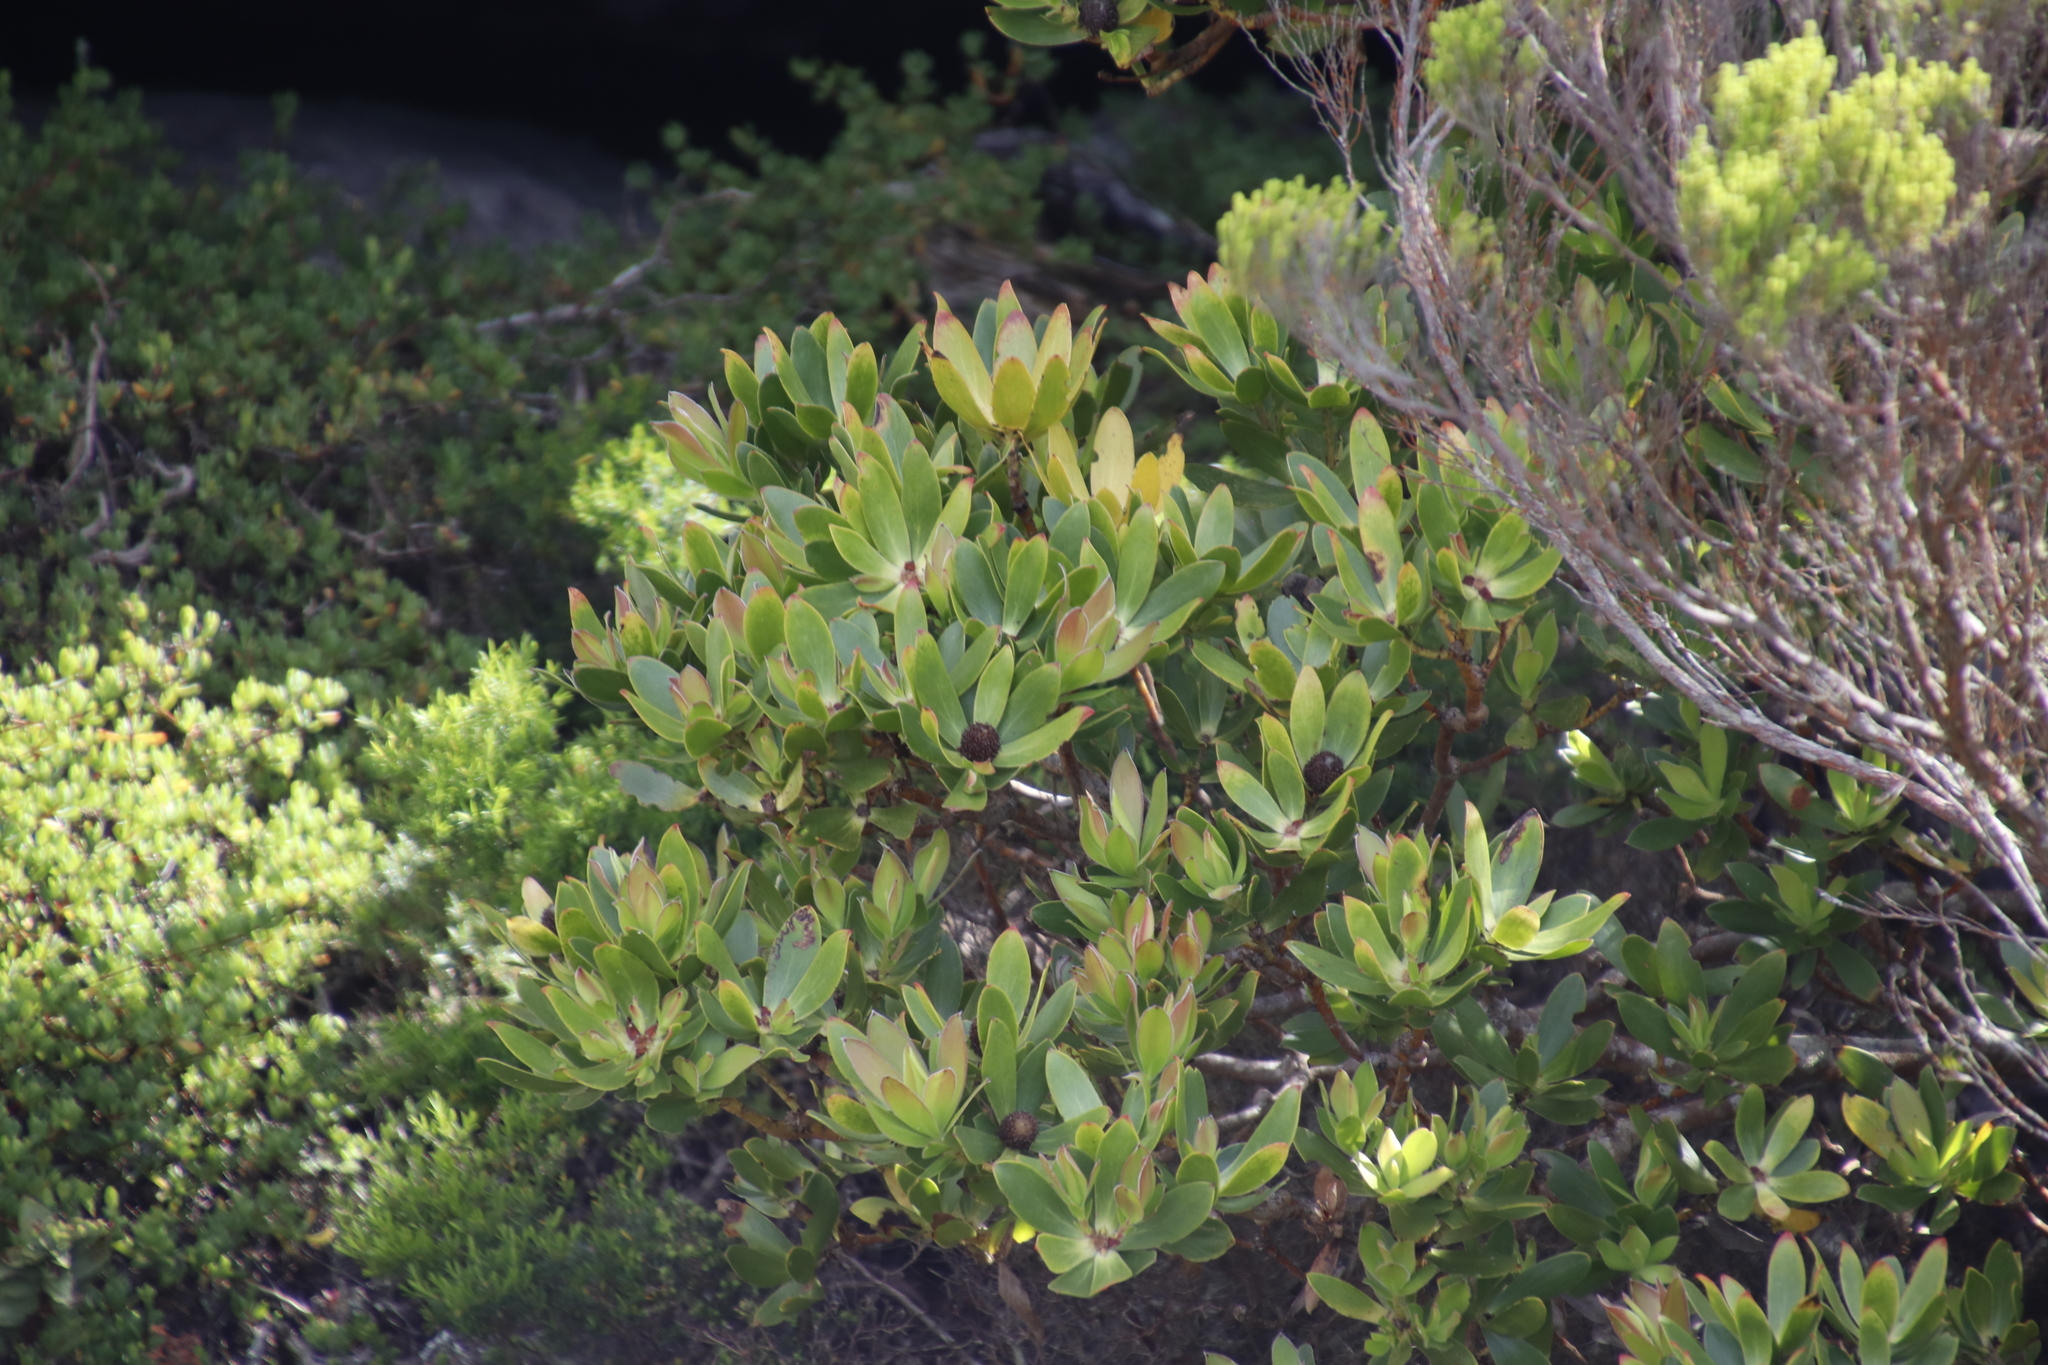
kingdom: Plantae
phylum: Tracheophyta
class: Magnoliopsida
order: Proteales
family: Proteaceae
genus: Leucadendron
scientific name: Leucadendron strobilinum
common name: Mountain rose
